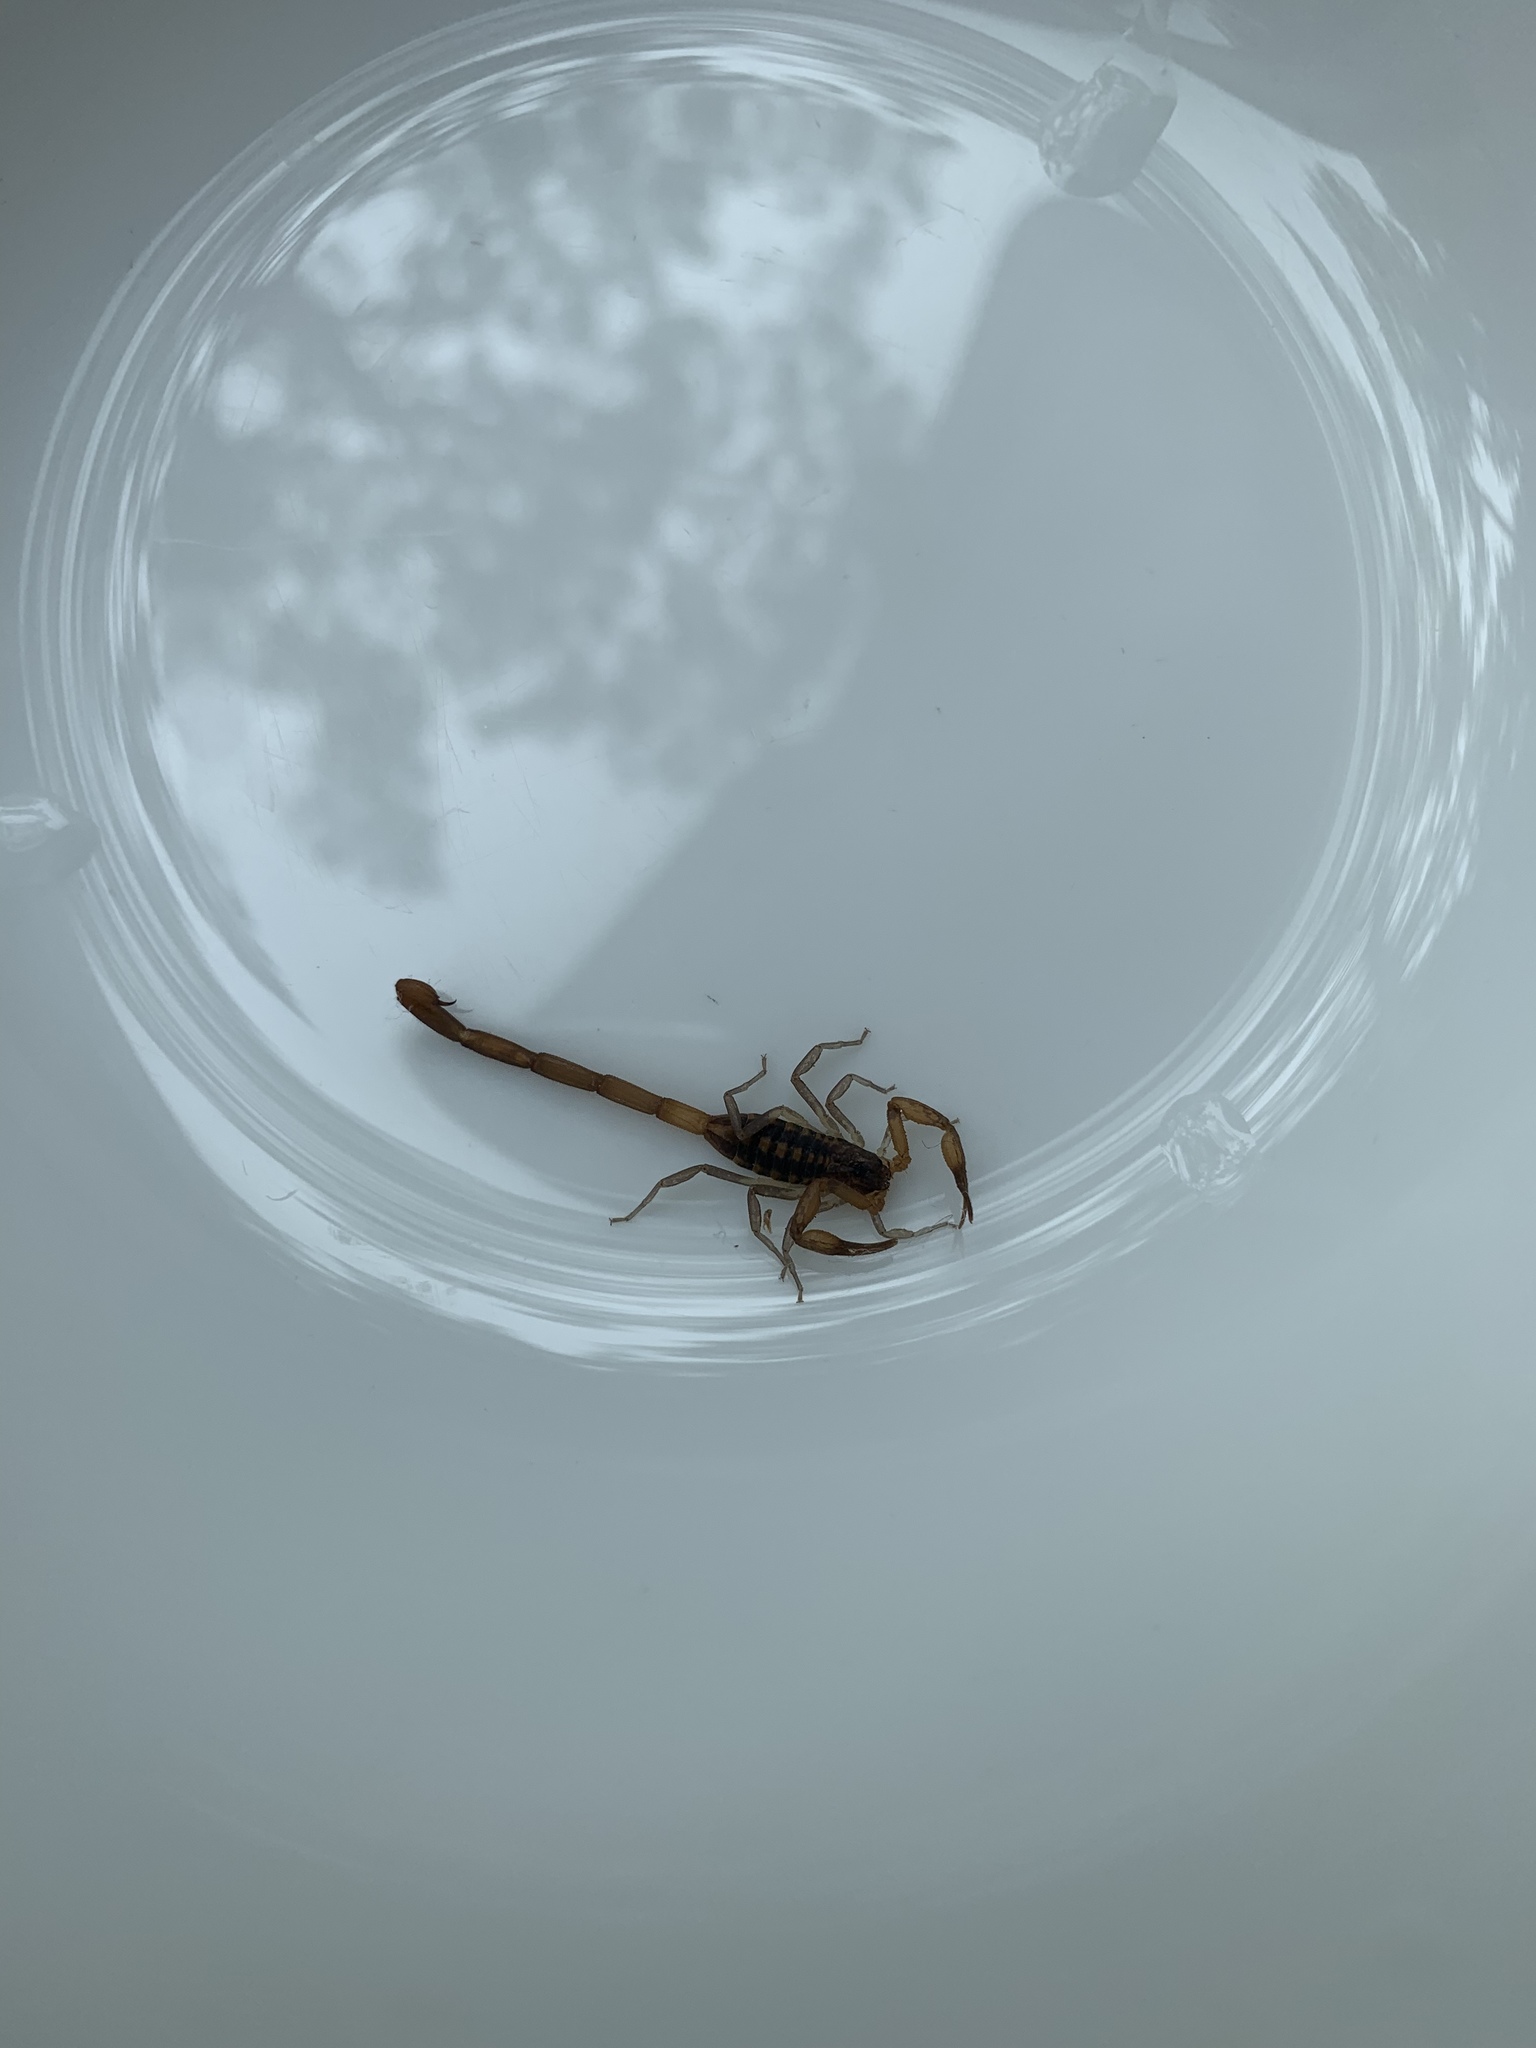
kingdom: Animalia
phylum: Arthropoda
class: Arachnida
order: Scorpiones
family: Buthidae
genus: Centruroides
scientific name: Centruroides hentzi
